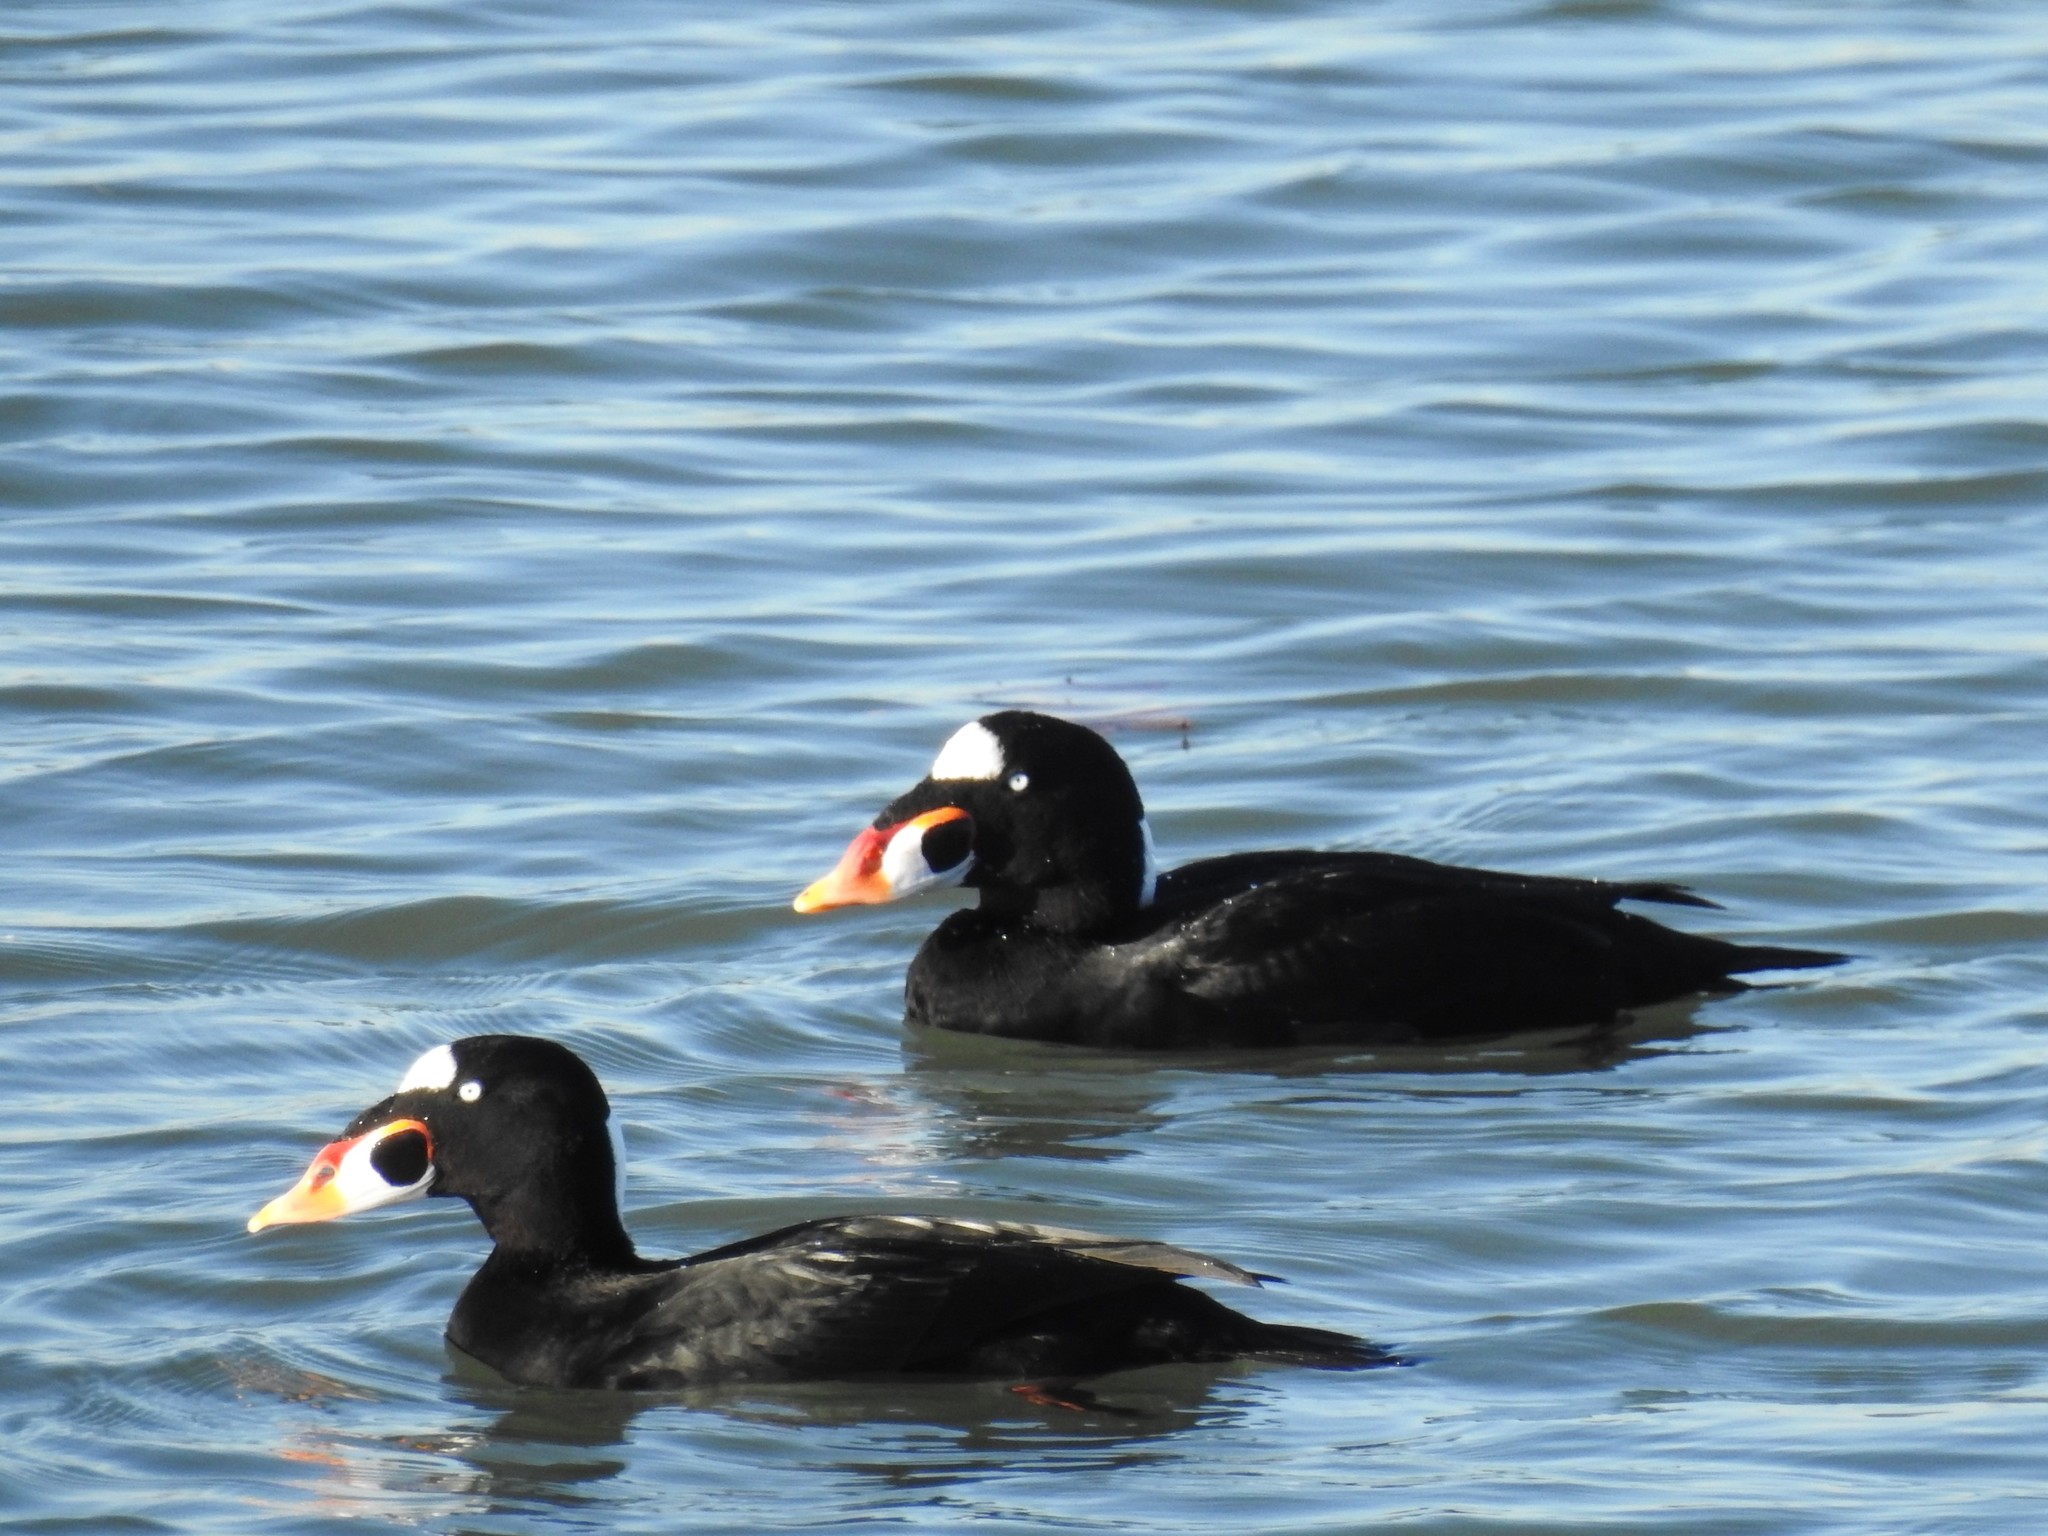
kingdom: Animalia
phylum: Chordata
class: Aves
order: Anseriformes
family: Anatidae
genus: Melanitta
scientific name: Melanitta perspicillata
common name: Surf scoter
